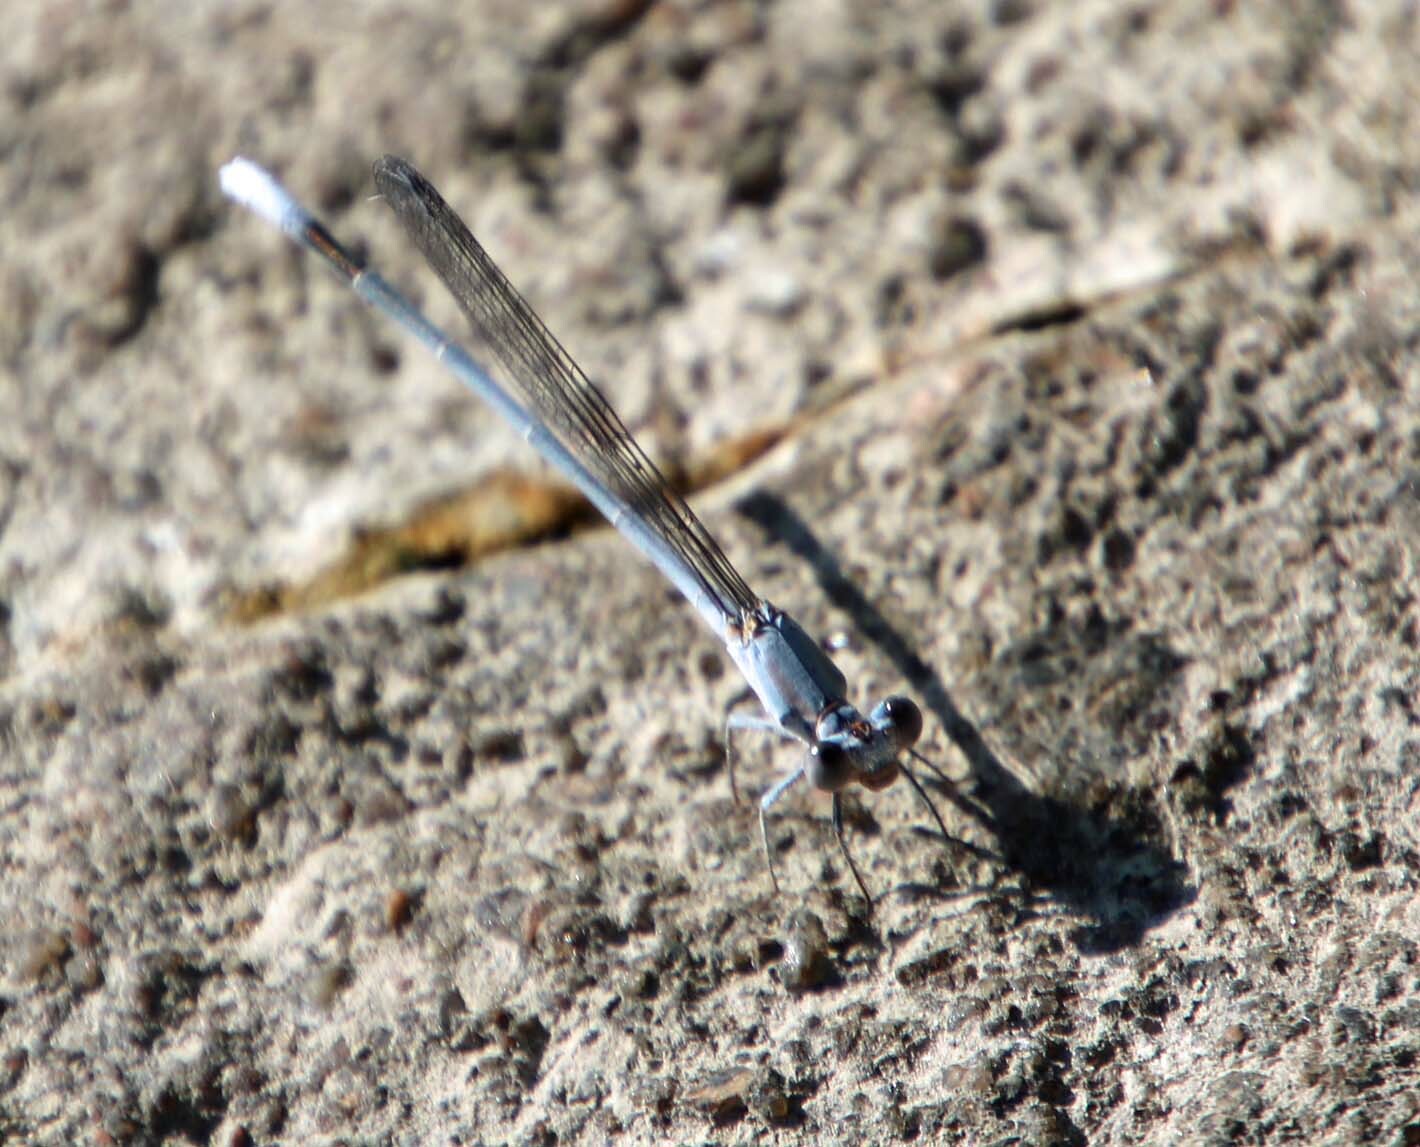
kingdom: Animalia
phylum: Arthropoda
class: Insecta
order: Odonata
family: Coenagrionidae
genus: Argia
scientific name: Argia moesta
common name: Powdered dancer
